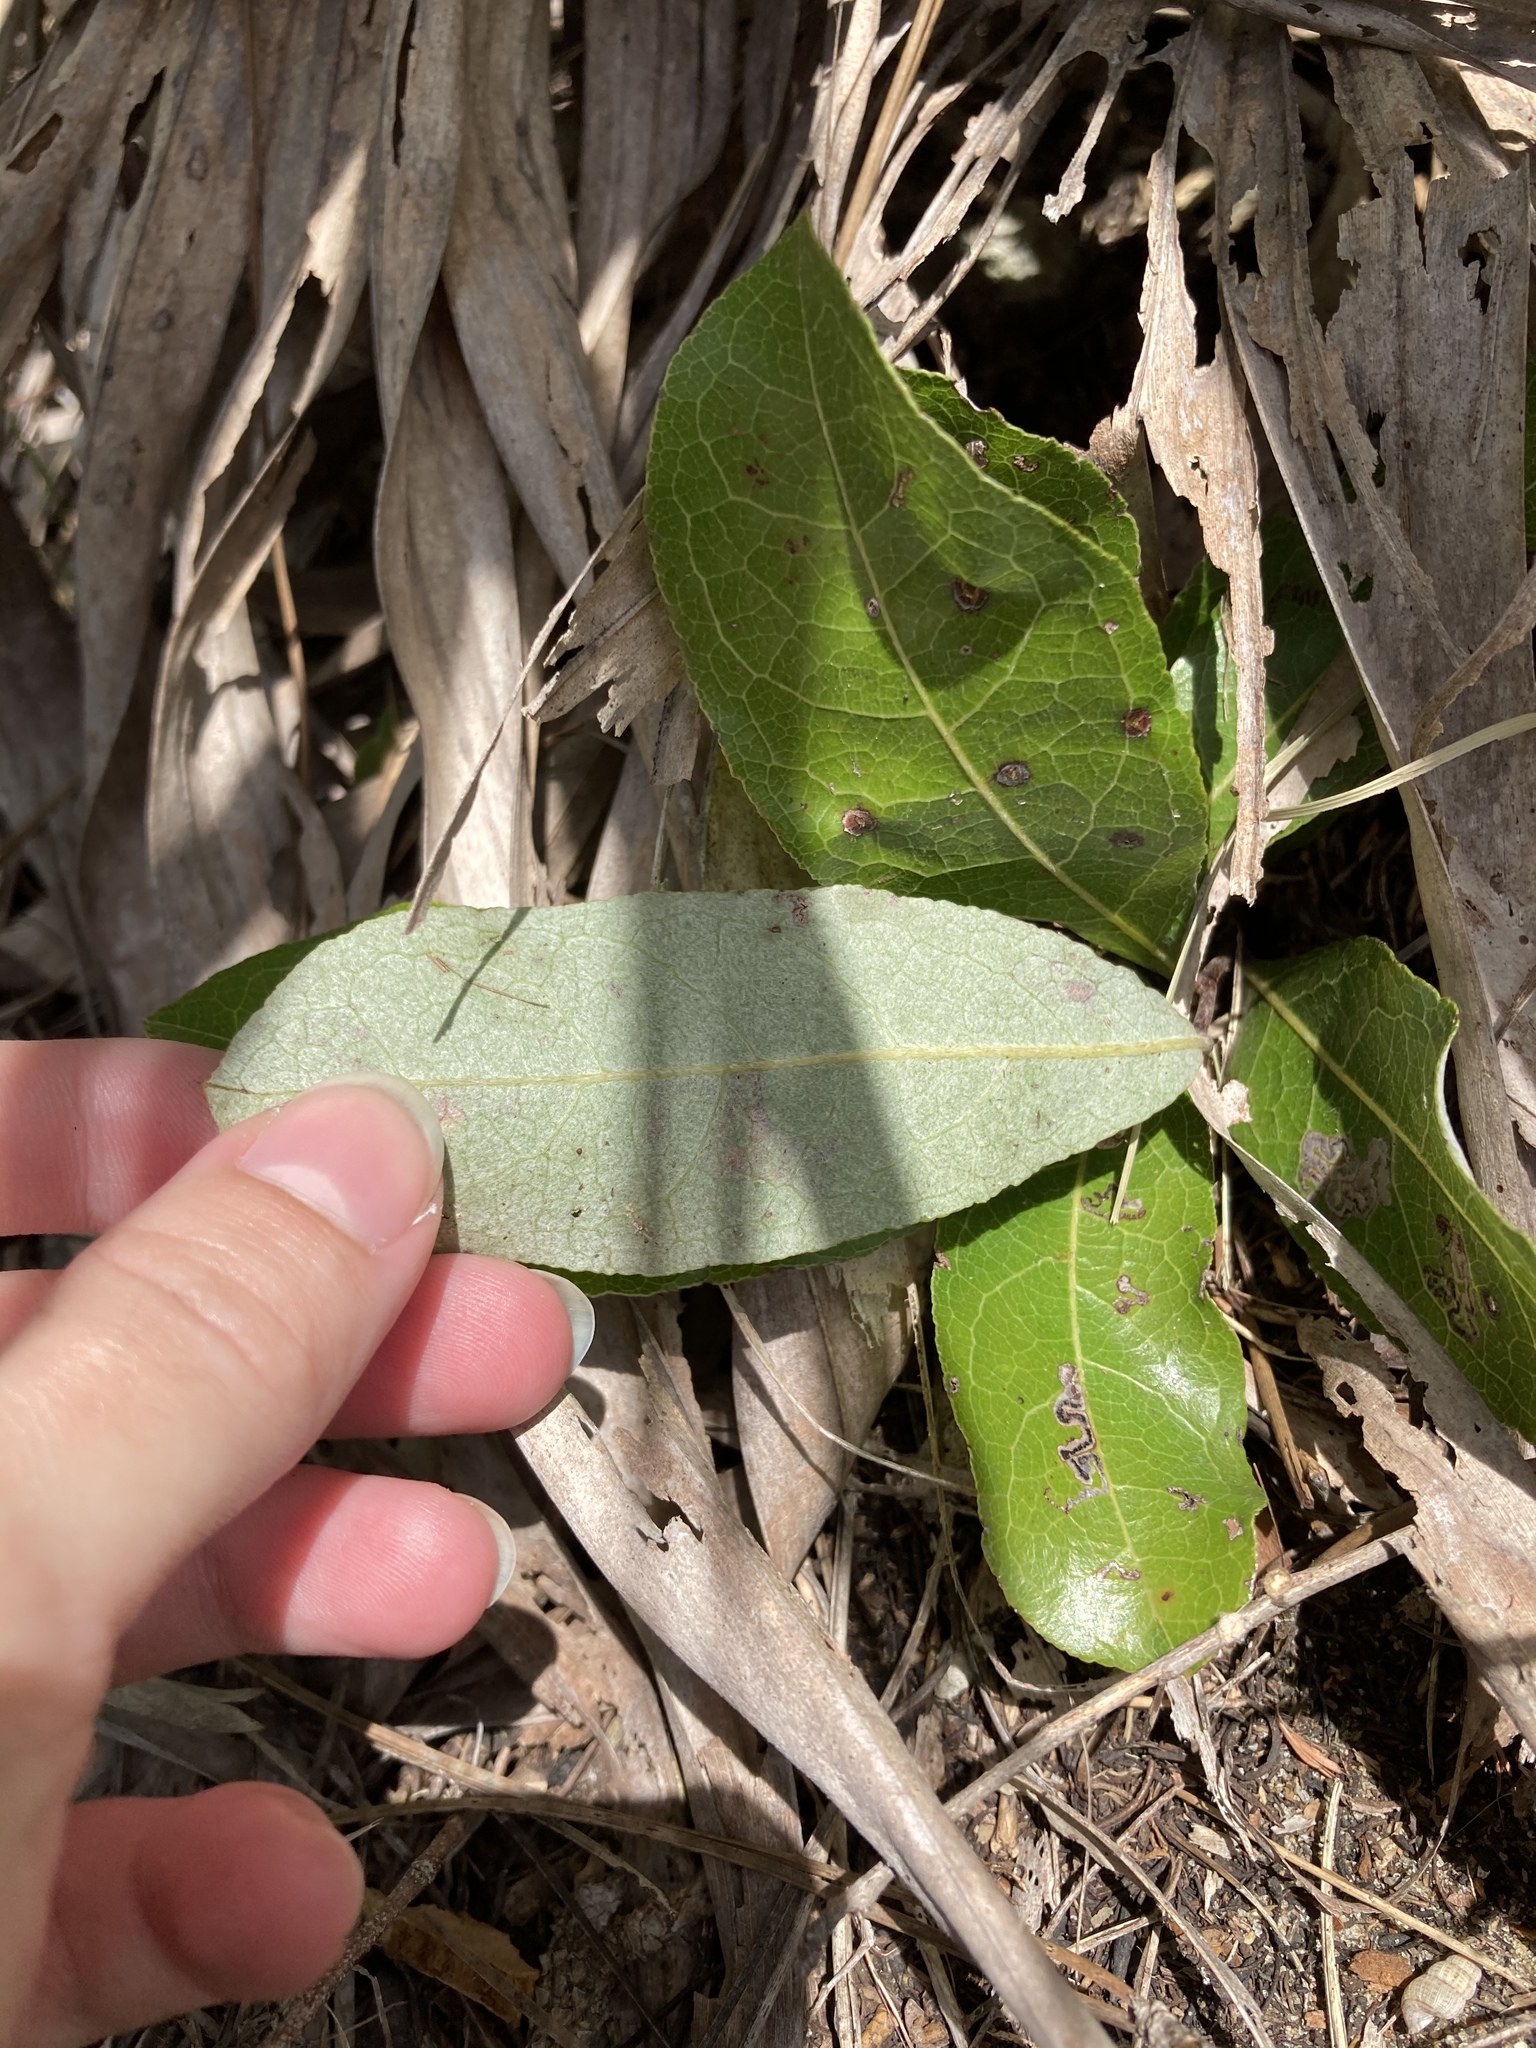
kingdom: Plantae
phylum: Tracheophyta
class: Magnoliopsida
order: Malpighiales
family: Chrysobalanaceae
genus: Geobalanus
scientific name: Geobalanus oblongifolius
